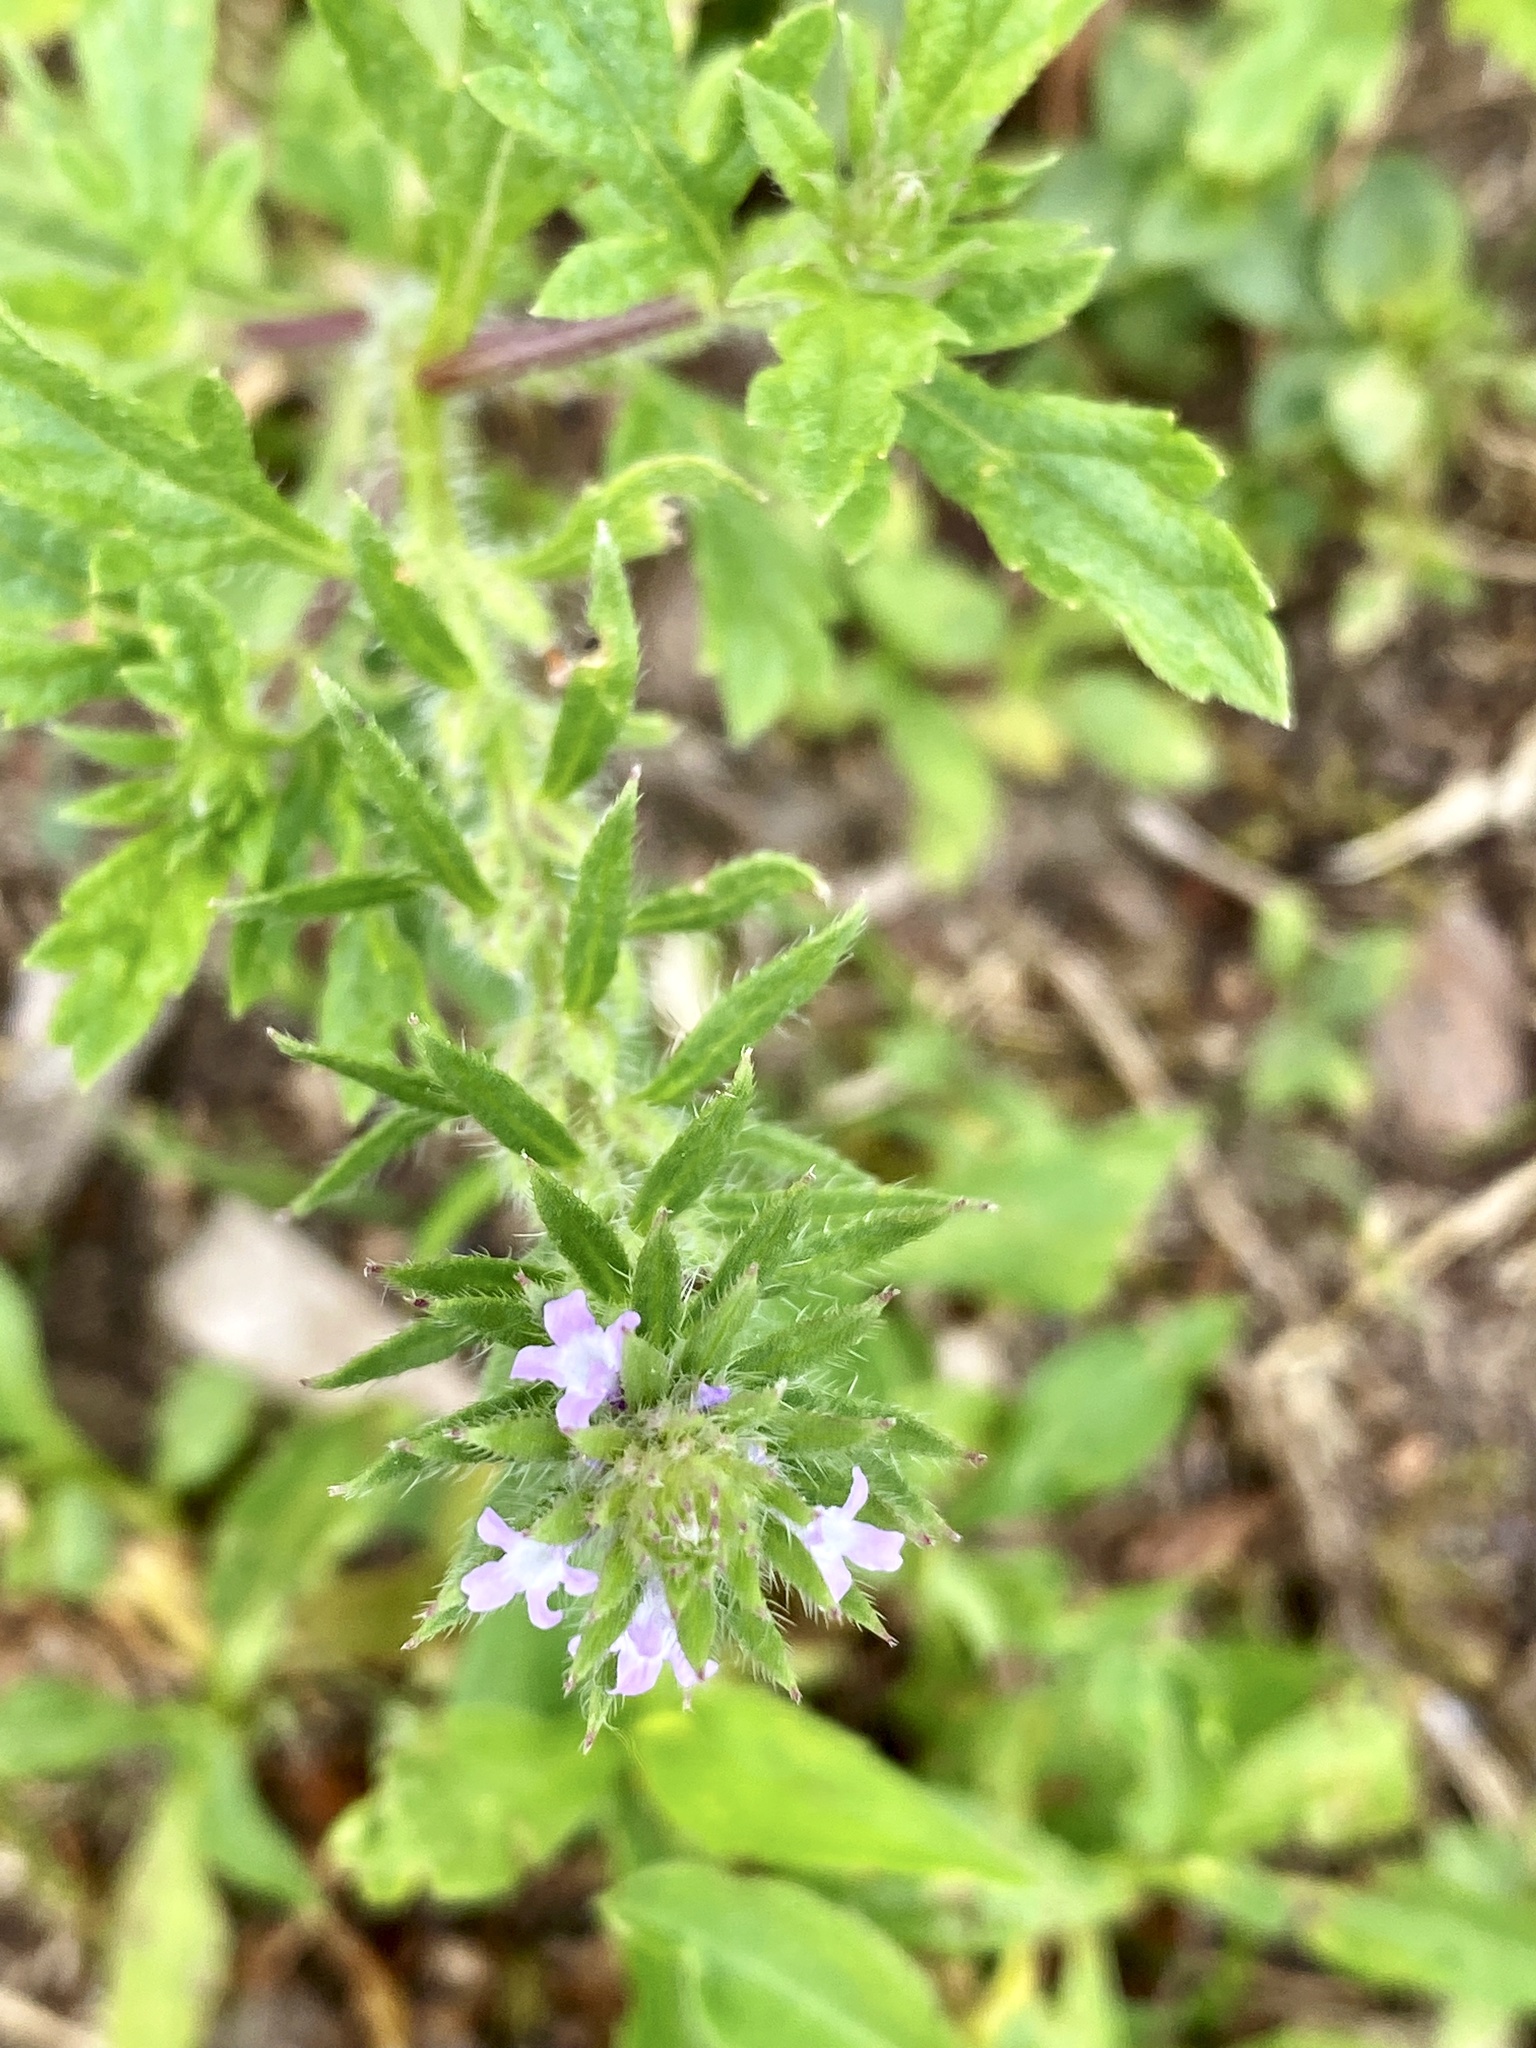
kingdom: Plantae
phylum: Tracheophyta
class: Magnoliopsida
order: Lamiales
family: Verbenaceae
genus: Verbena
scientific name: Verbena bracteata
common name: Bracted vervain
